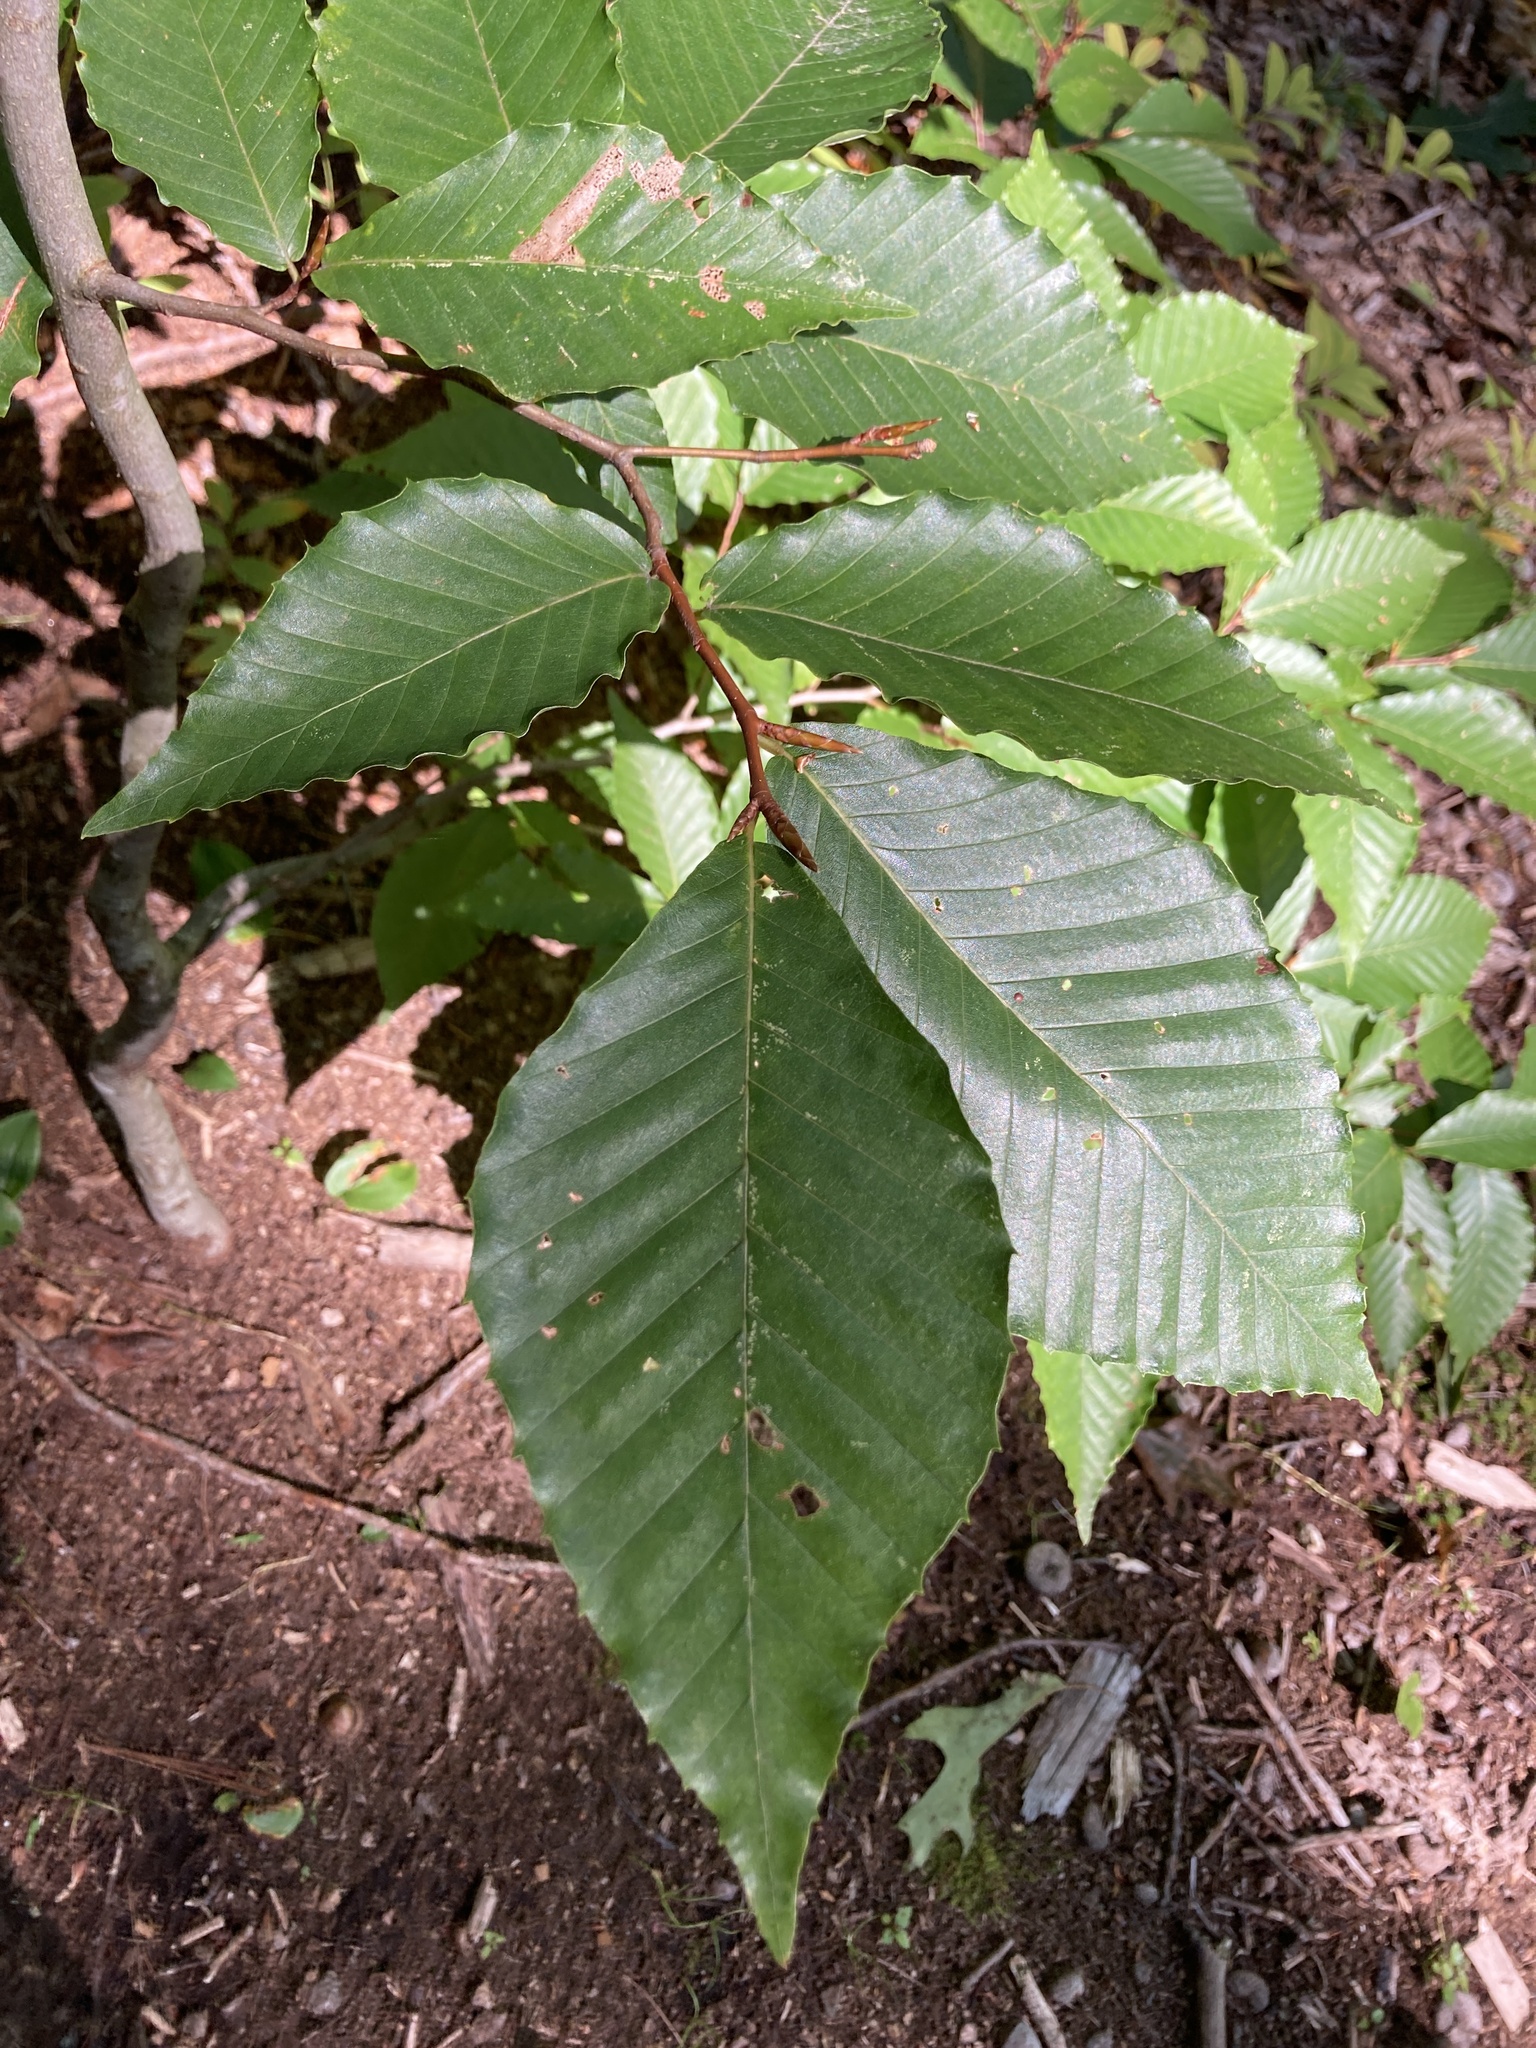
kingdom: Plantae
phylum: Tracheophyta
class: Magnoliopsida
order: Fagales
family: Fagaceae
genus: Fagus
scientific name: Fagus grandifolia
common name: American beech
